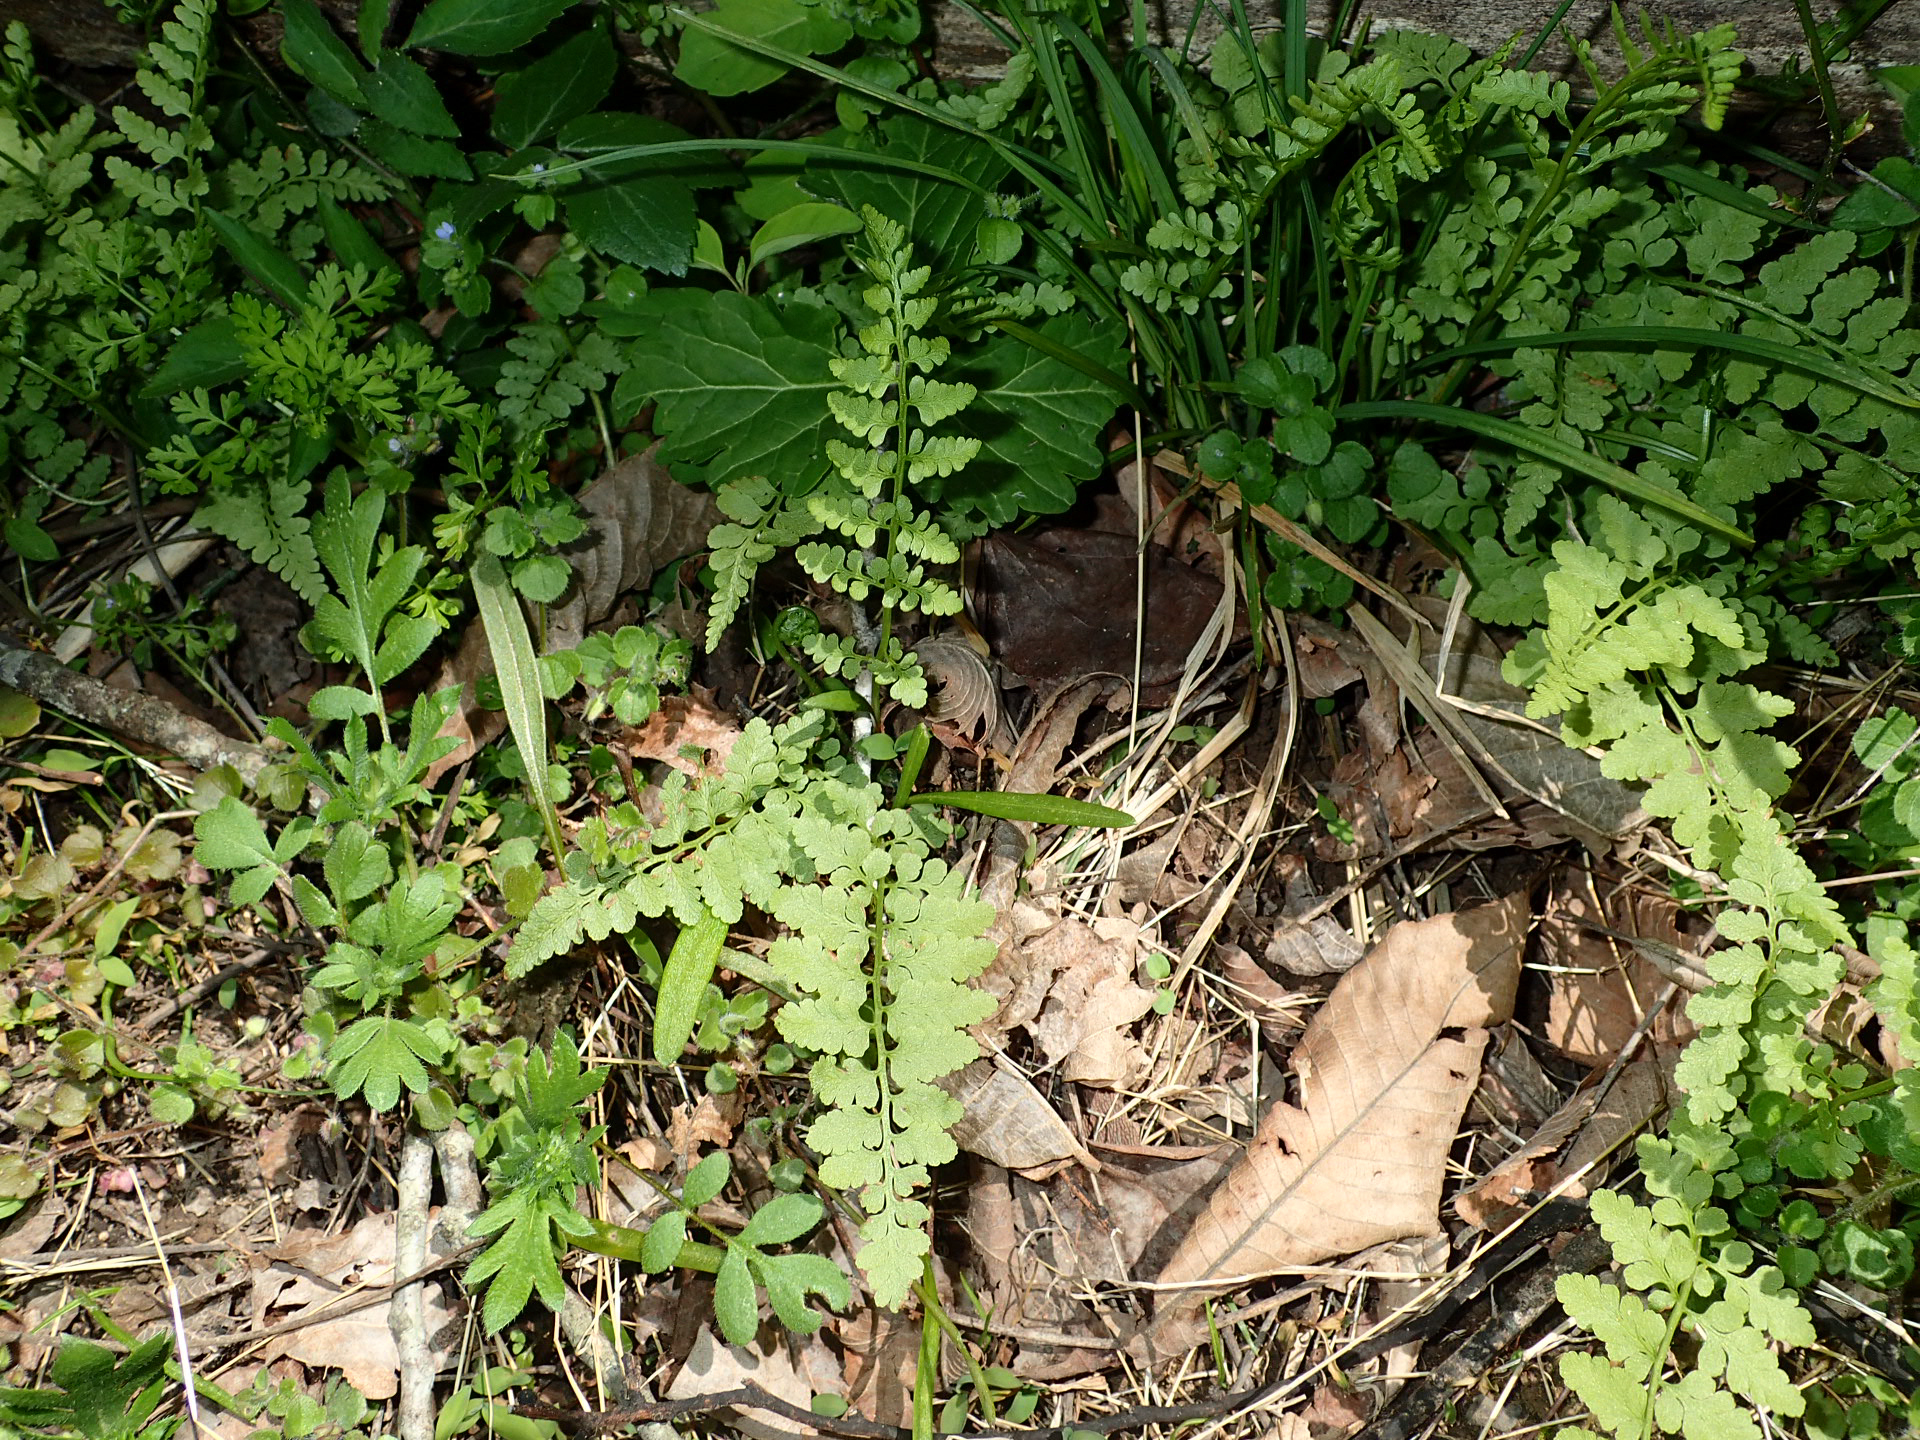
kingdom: Plantae
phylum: Tracheophyta
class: Polypodiopsida
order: Polypodiales
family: Cystopteridaceae
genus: Cystopteris
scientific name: Cystopteris protrusa
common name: Lowland brittle fern
